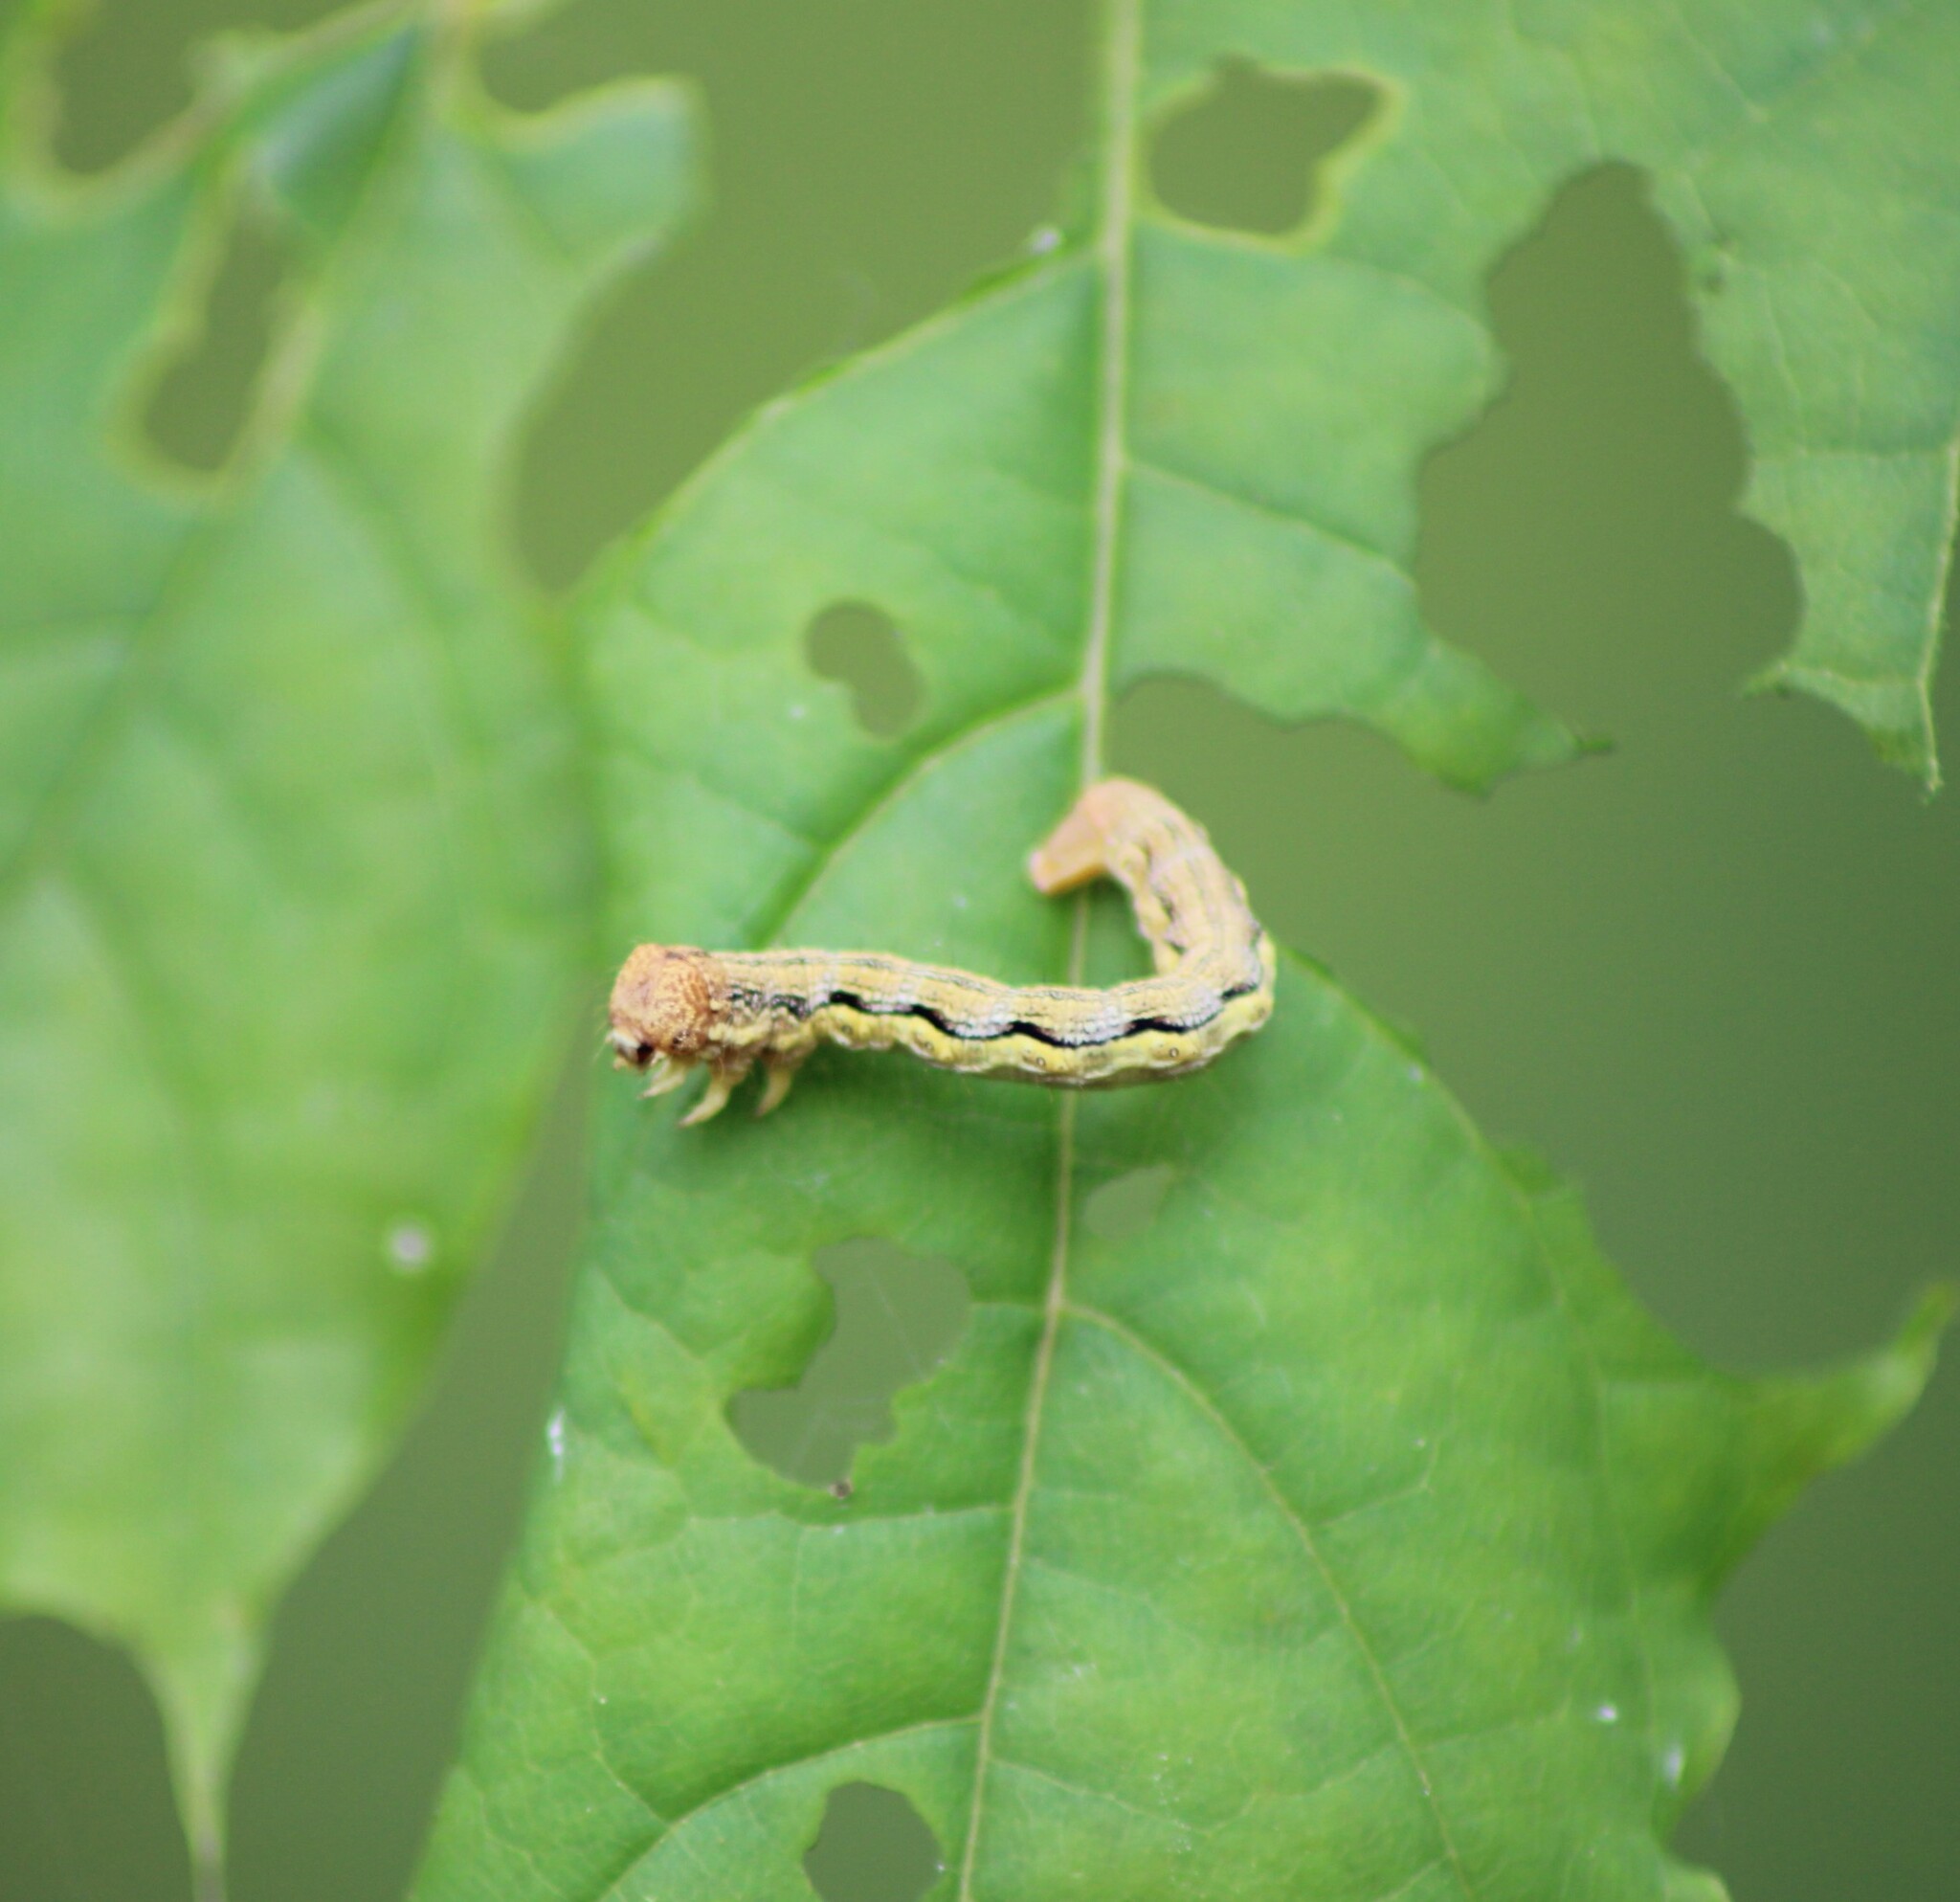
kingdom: Animalia
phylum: Arthropoda
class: Insecta
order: Lepidoptera
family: Geometridae
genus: Erannis
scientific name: Erannis defoliaria
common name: Mottled umber
